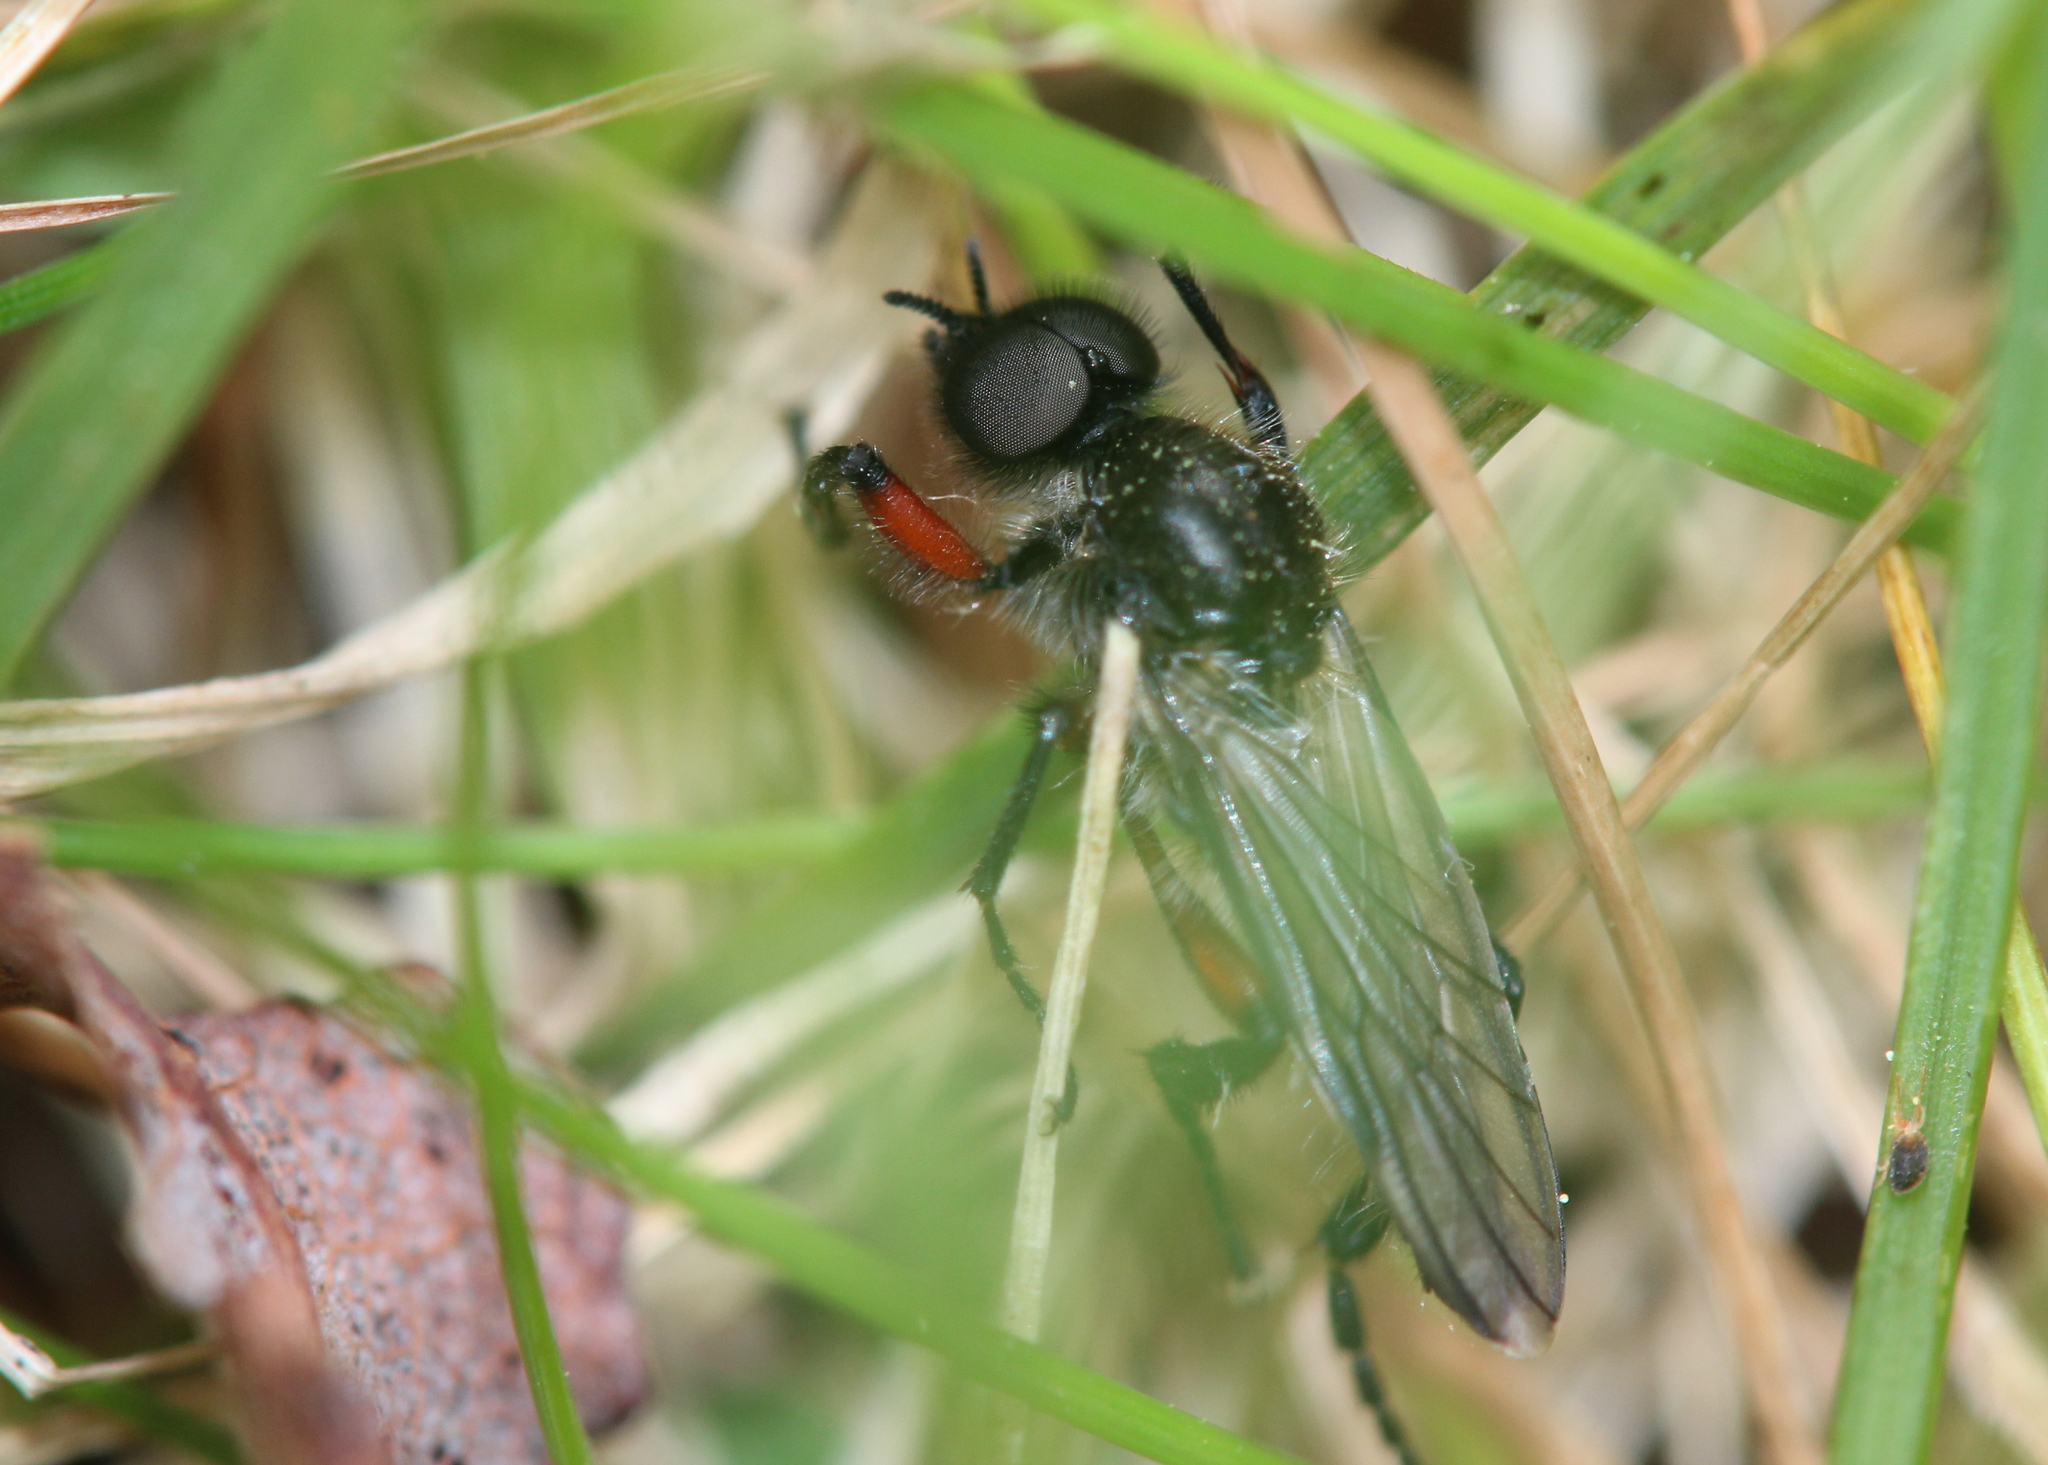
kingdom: Animalia
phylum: Arthropoda
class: Insecta
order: Diptera
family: Bibionidae
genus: Bibio
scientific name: Bibio femoratus
